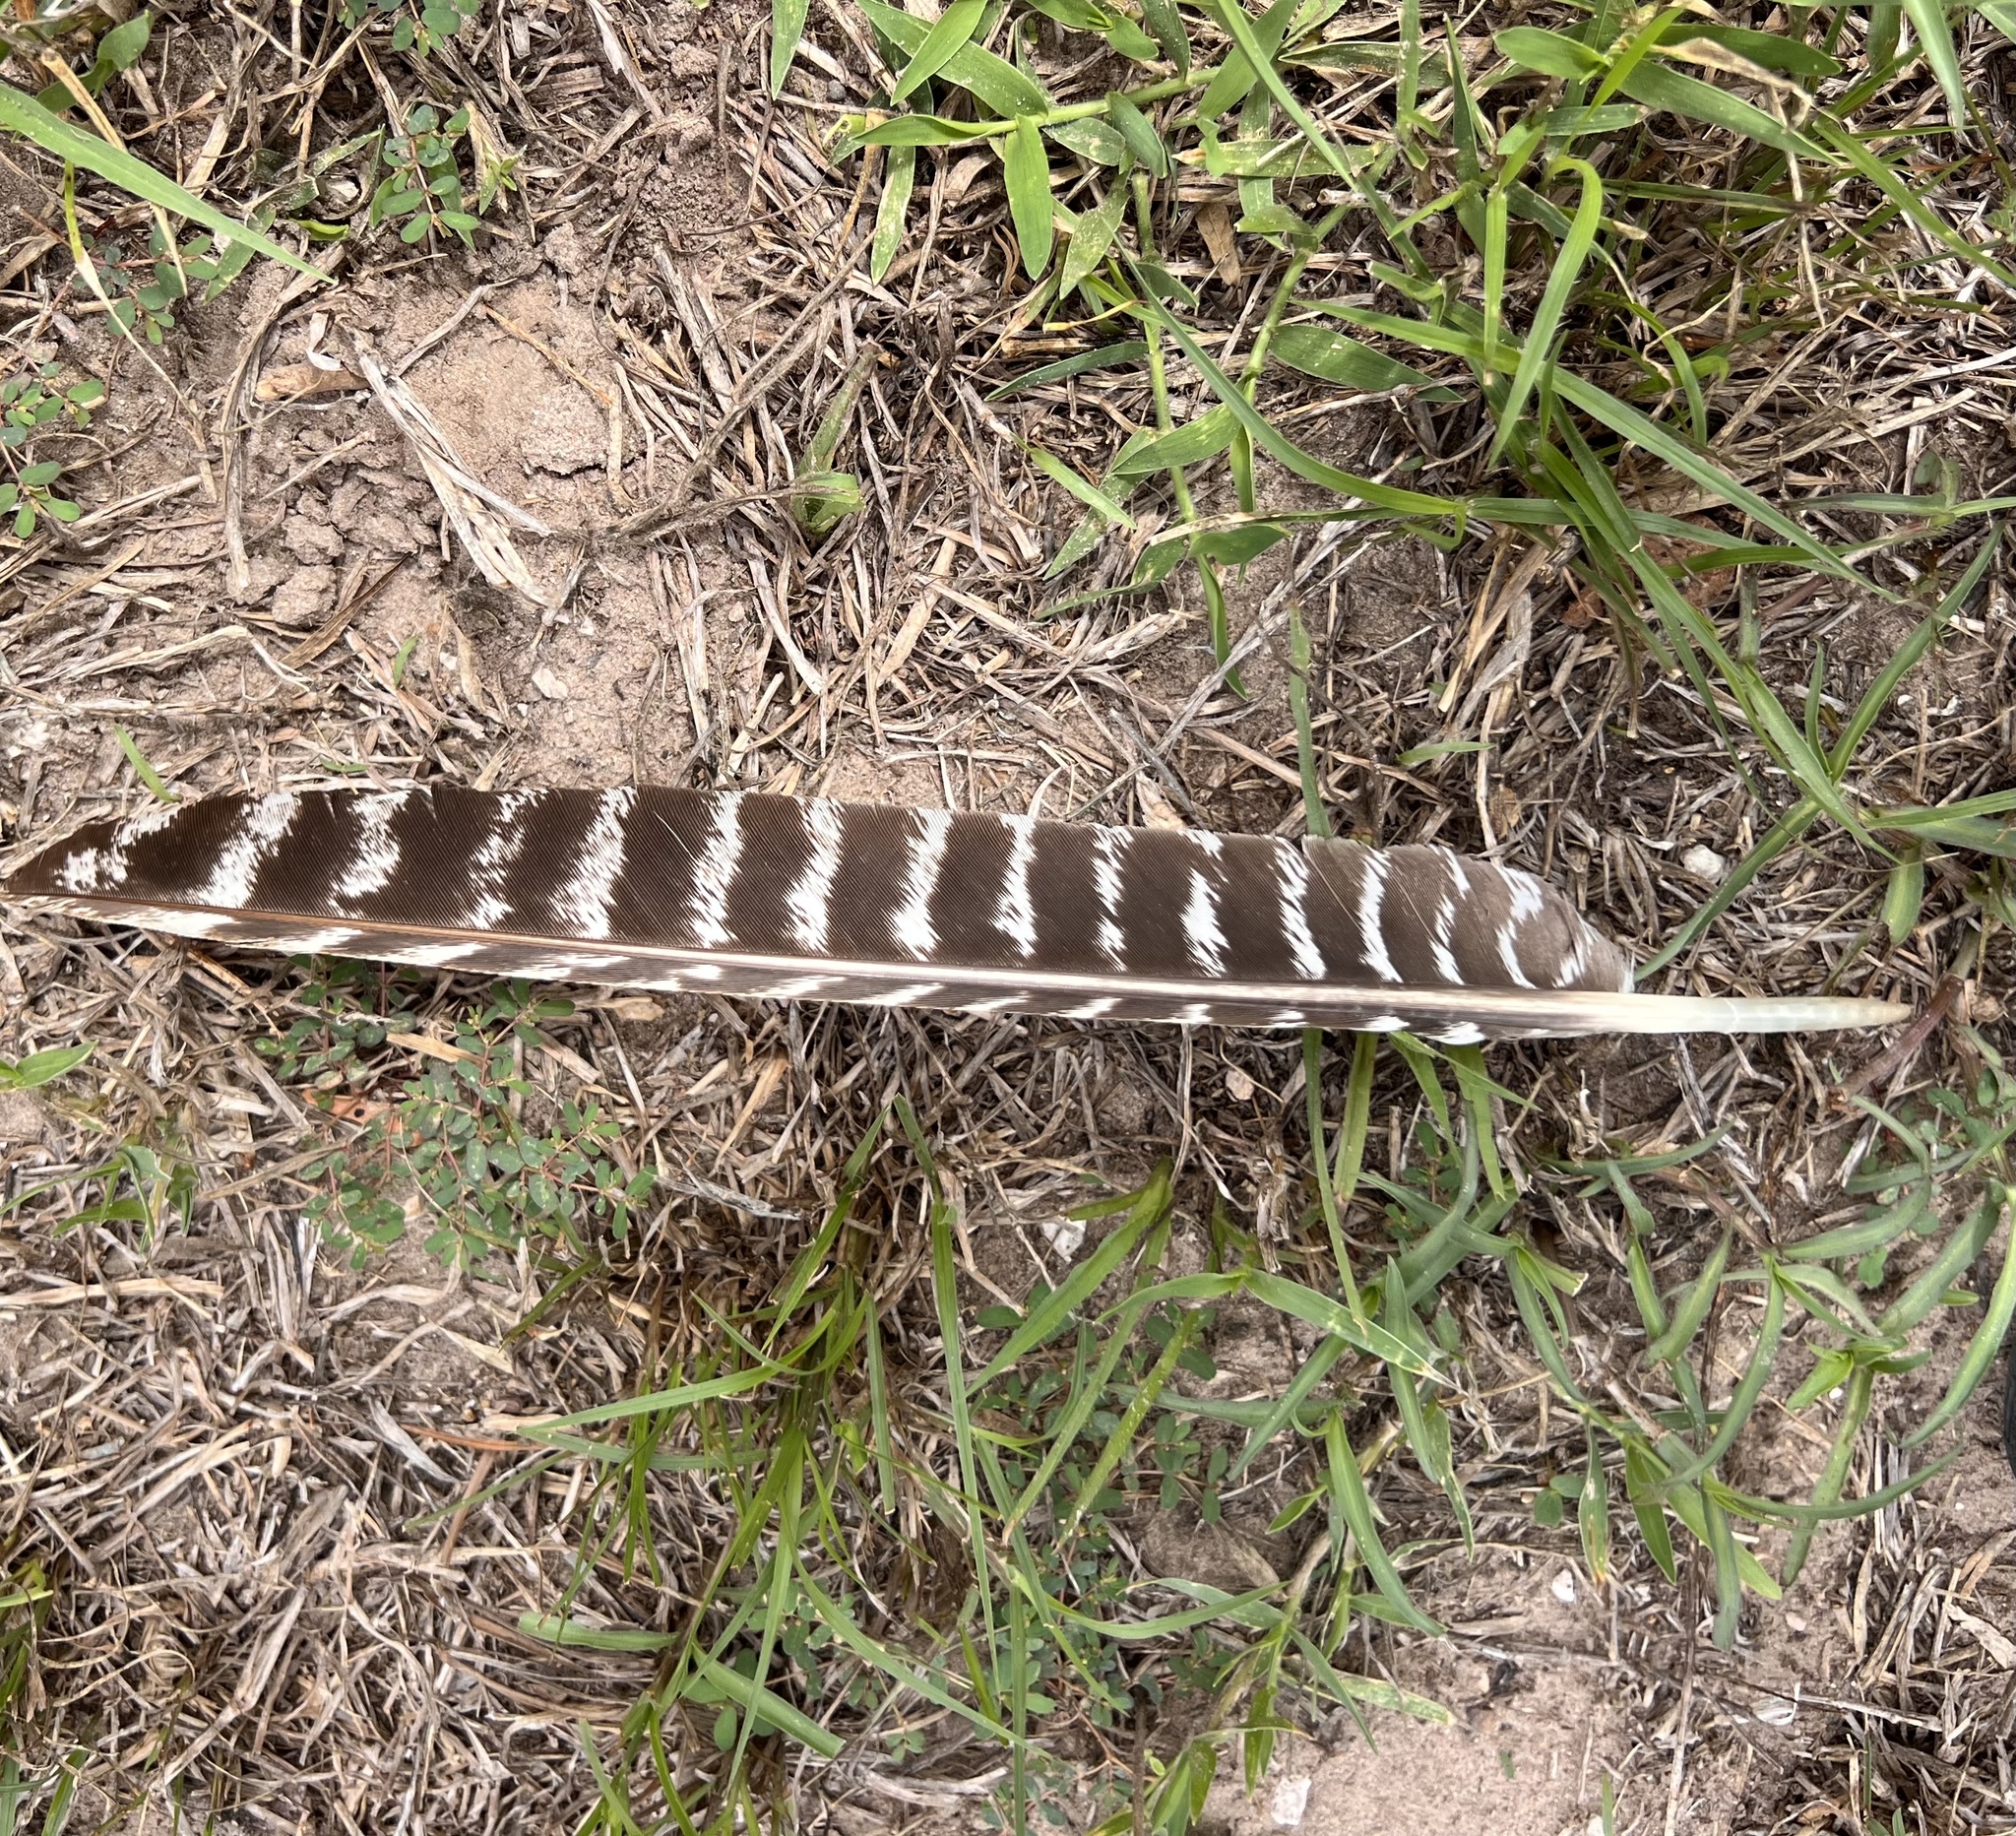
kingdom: Animalia
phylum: Chordata
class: Aves
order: Galliformes
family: Phasianidae
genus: Meleagris
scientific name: Meleagris gallopavo
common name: Wild turkey
